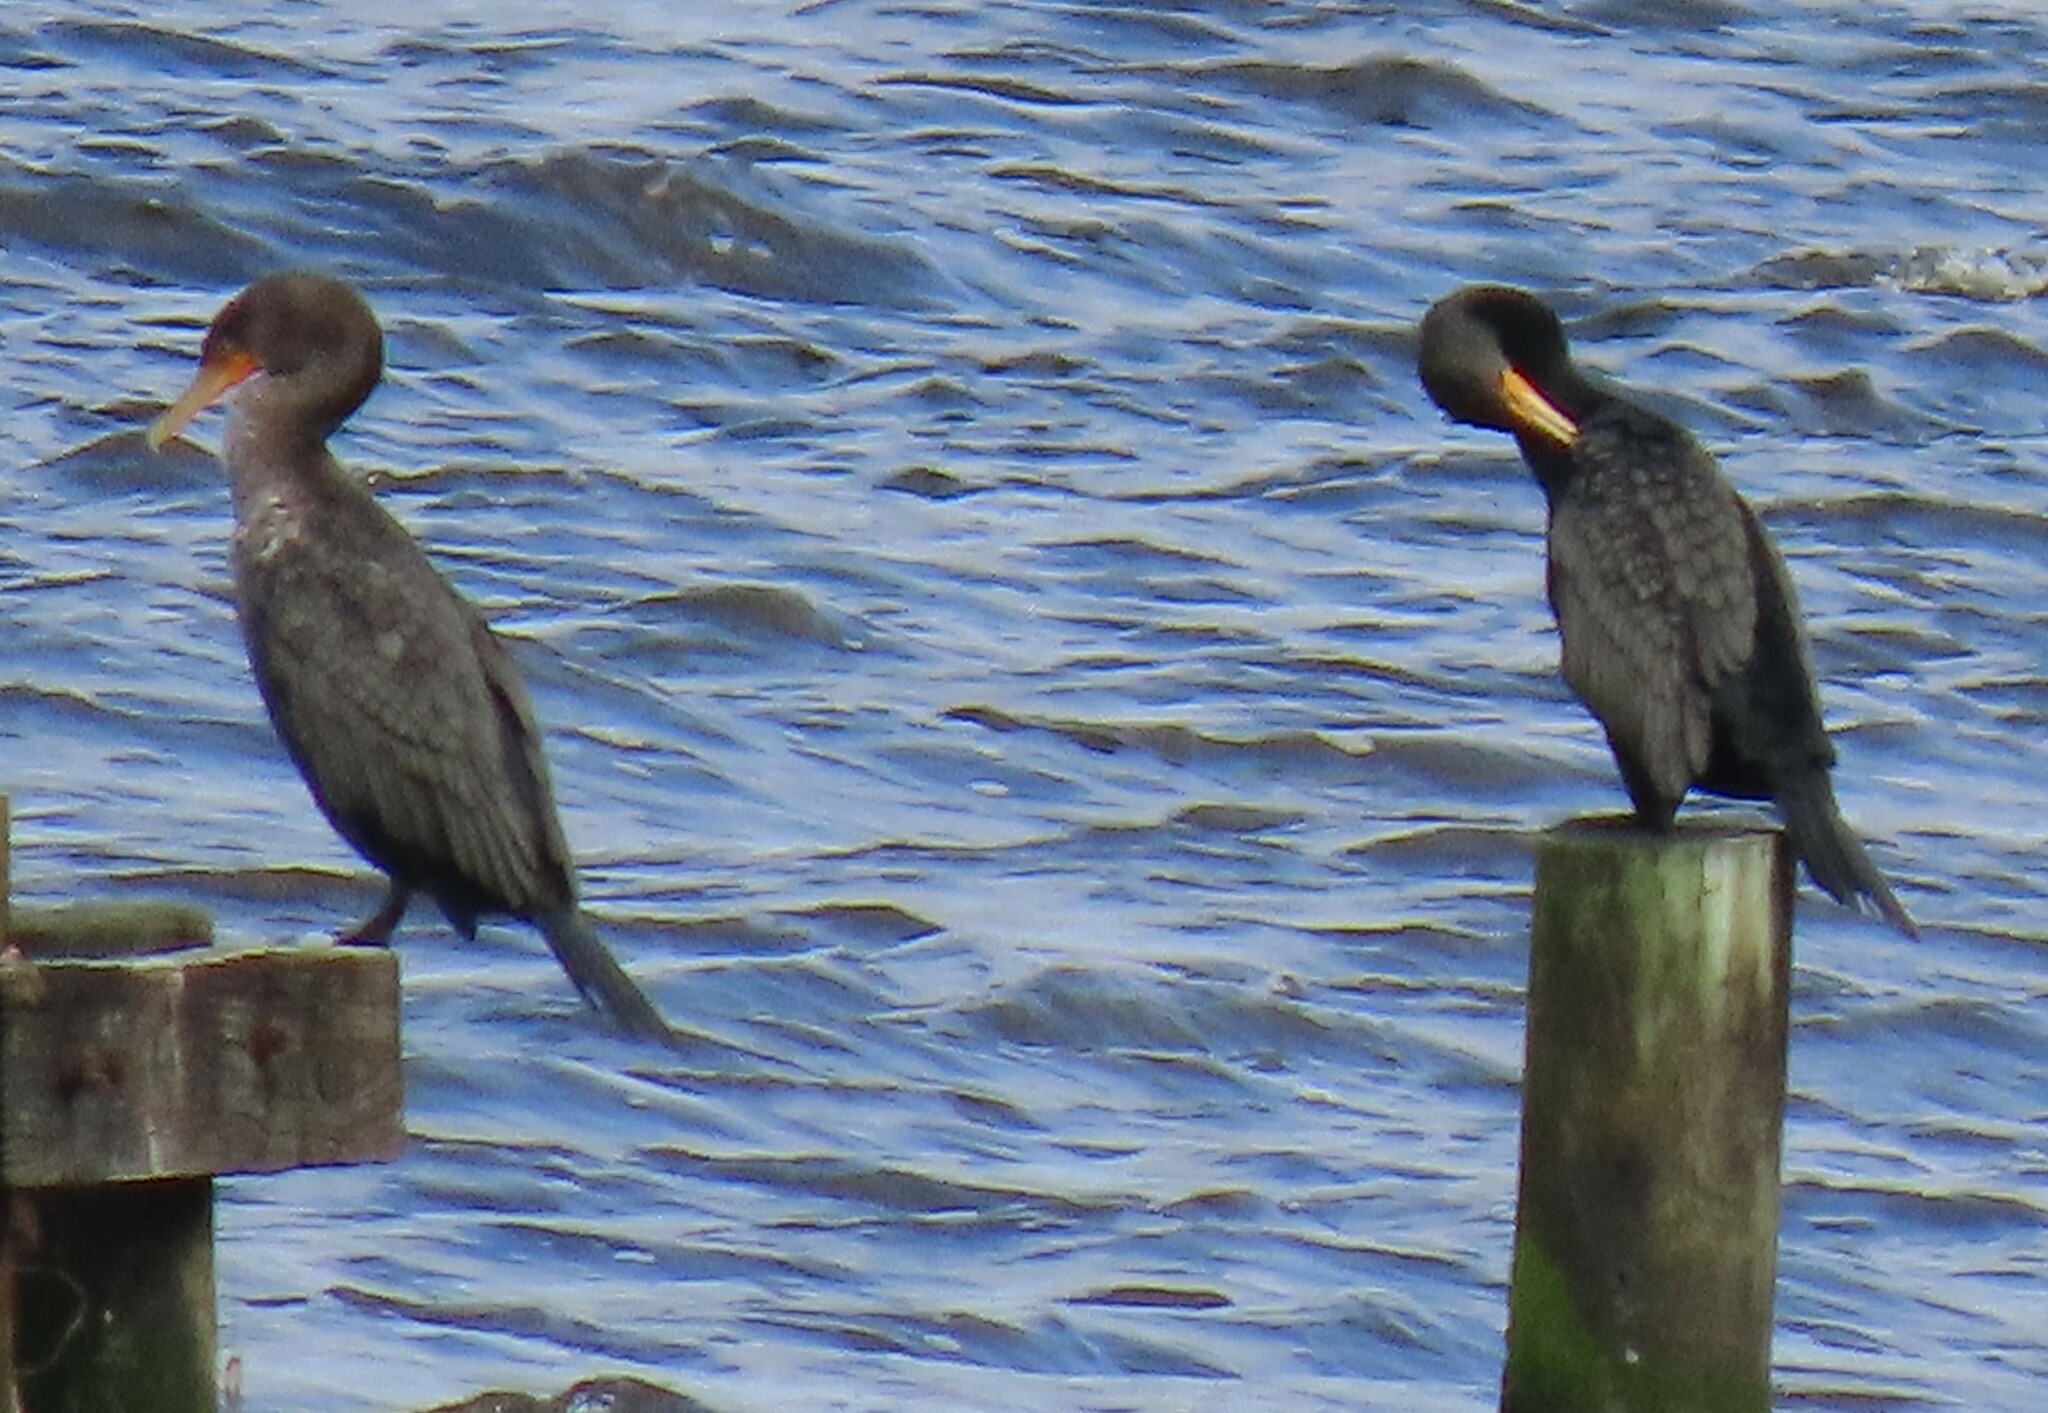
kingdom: Animalia
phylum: Chordata
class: Aves
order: Suliformes
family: Phalacrocoracidae
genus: Phalacrocorax
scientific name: Phalacrocorax auritus
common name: Double-crested cormorant
